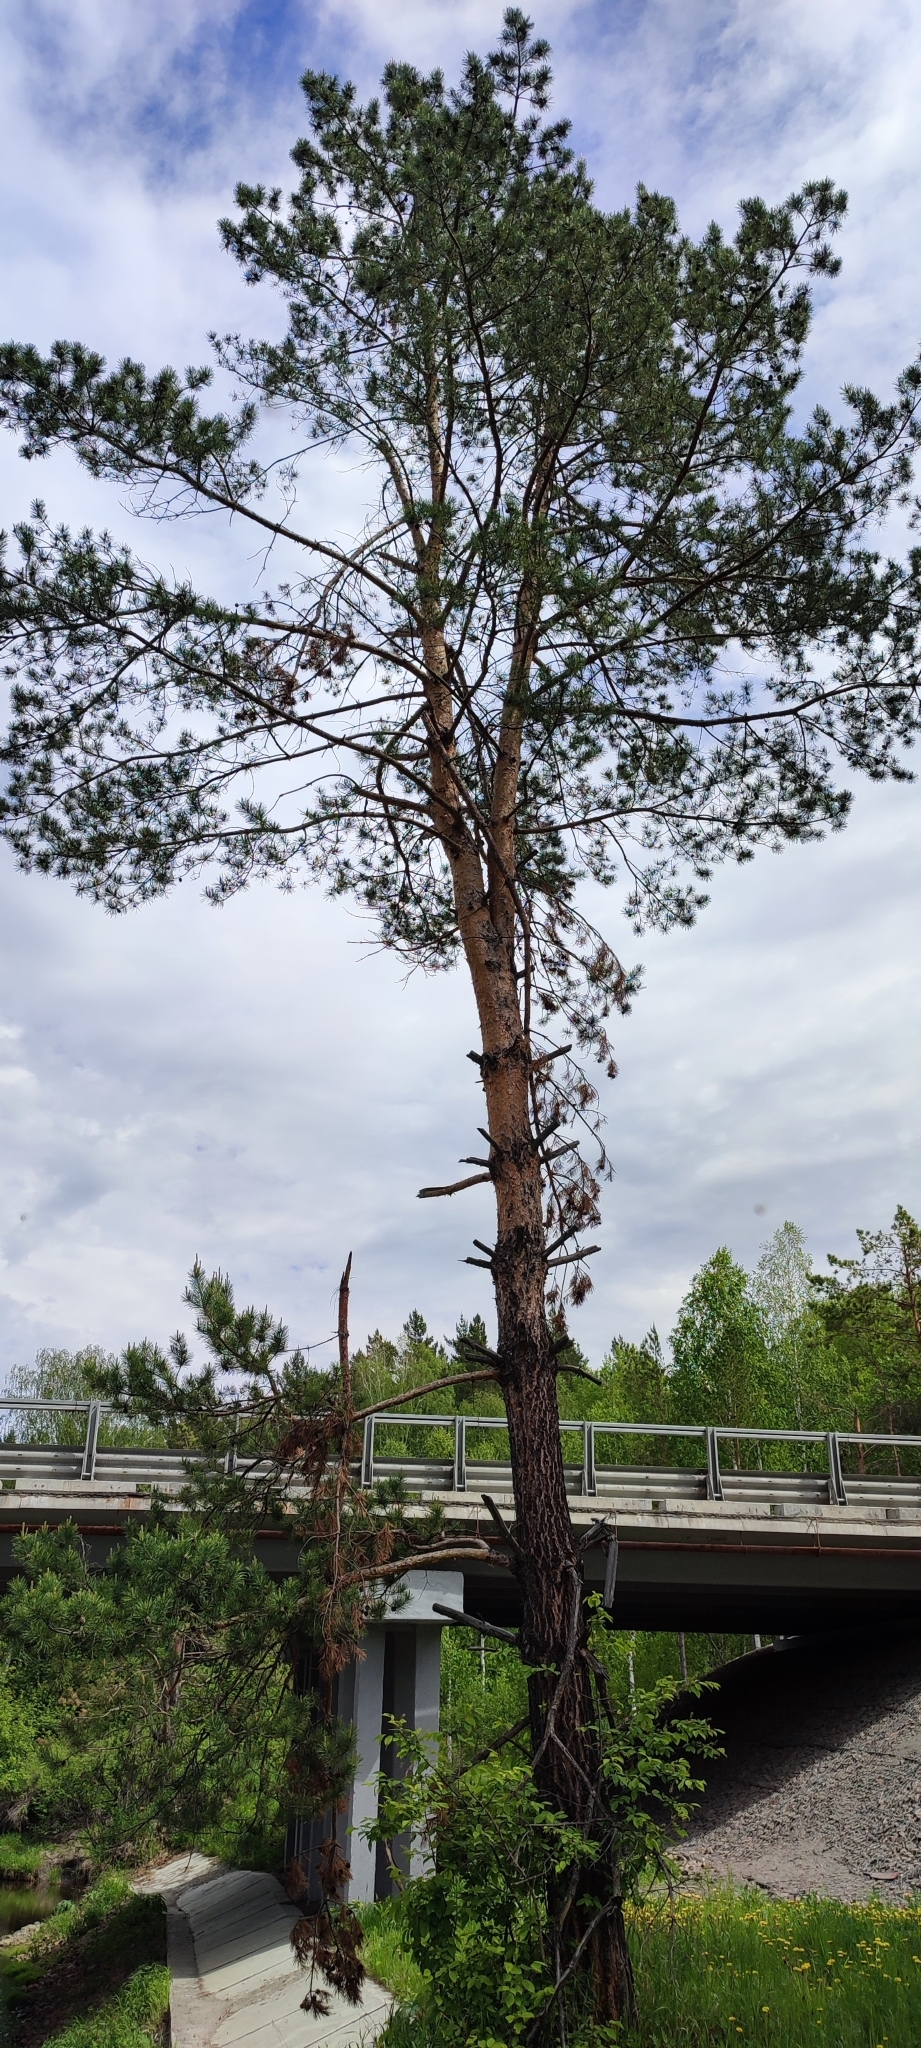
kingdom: Plantae
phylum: Tracheophyta
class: Pinopsida
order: Pinales
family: Pinaceae
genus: Pinus
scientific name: Pinus sylvestris
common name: Scots pine
